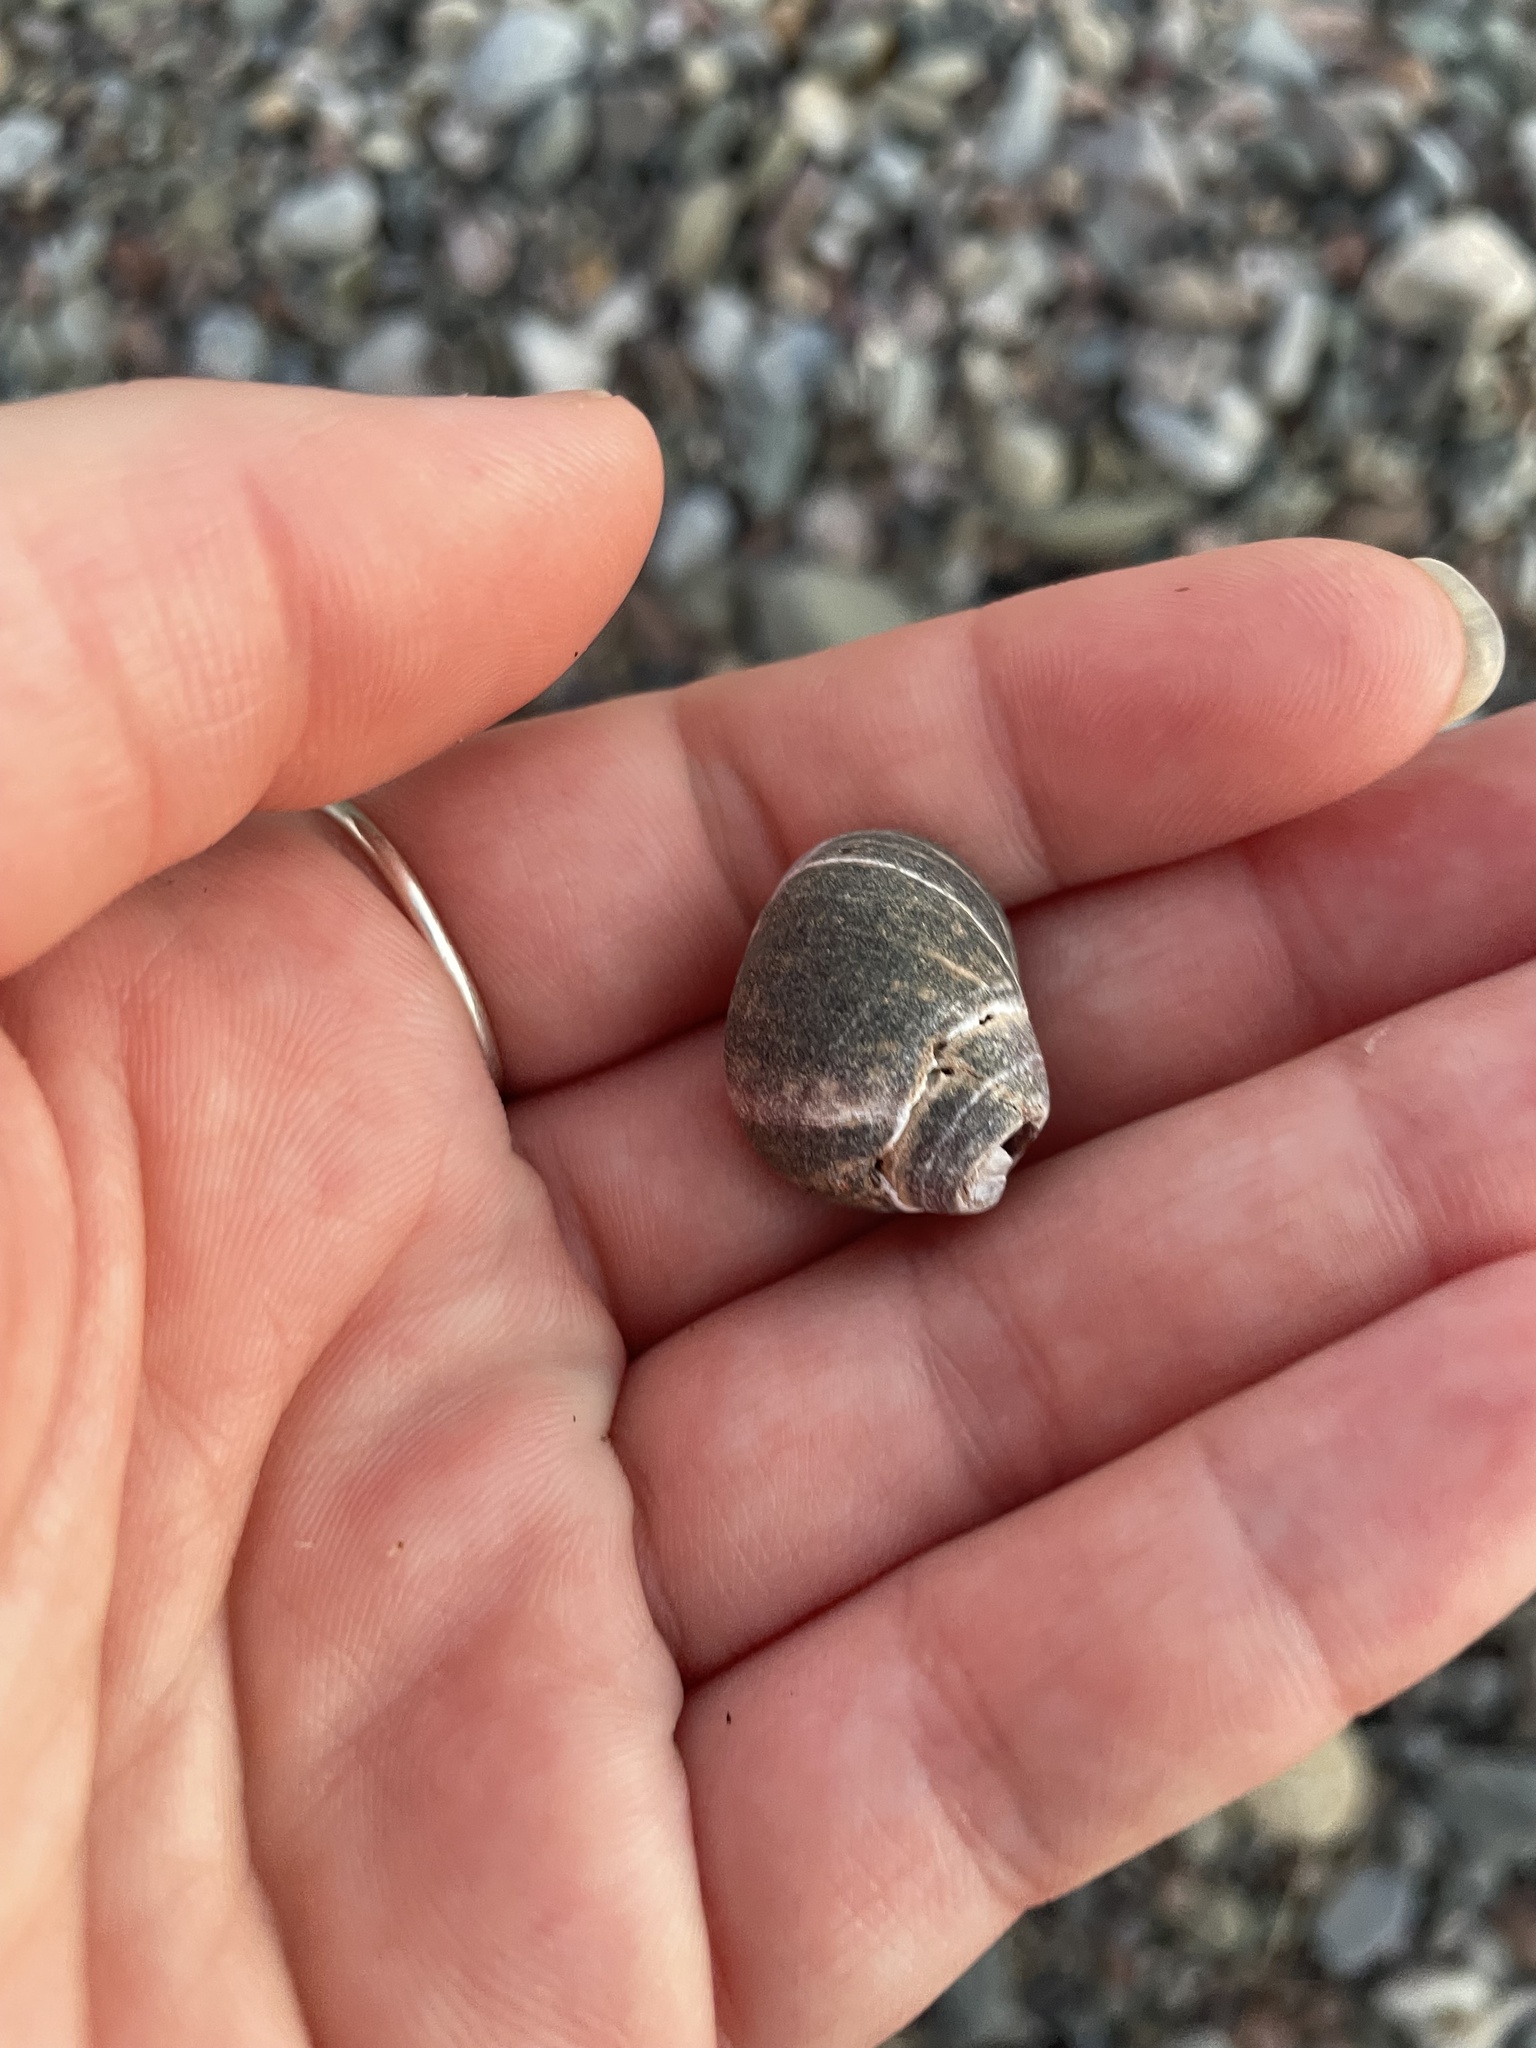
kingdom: Animalia
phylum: Mollusca
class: Gastropoda
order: Littorinimorpha
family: Littorinidae
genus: Littorina
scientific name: Littorina littorea
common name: Common periwinkle
